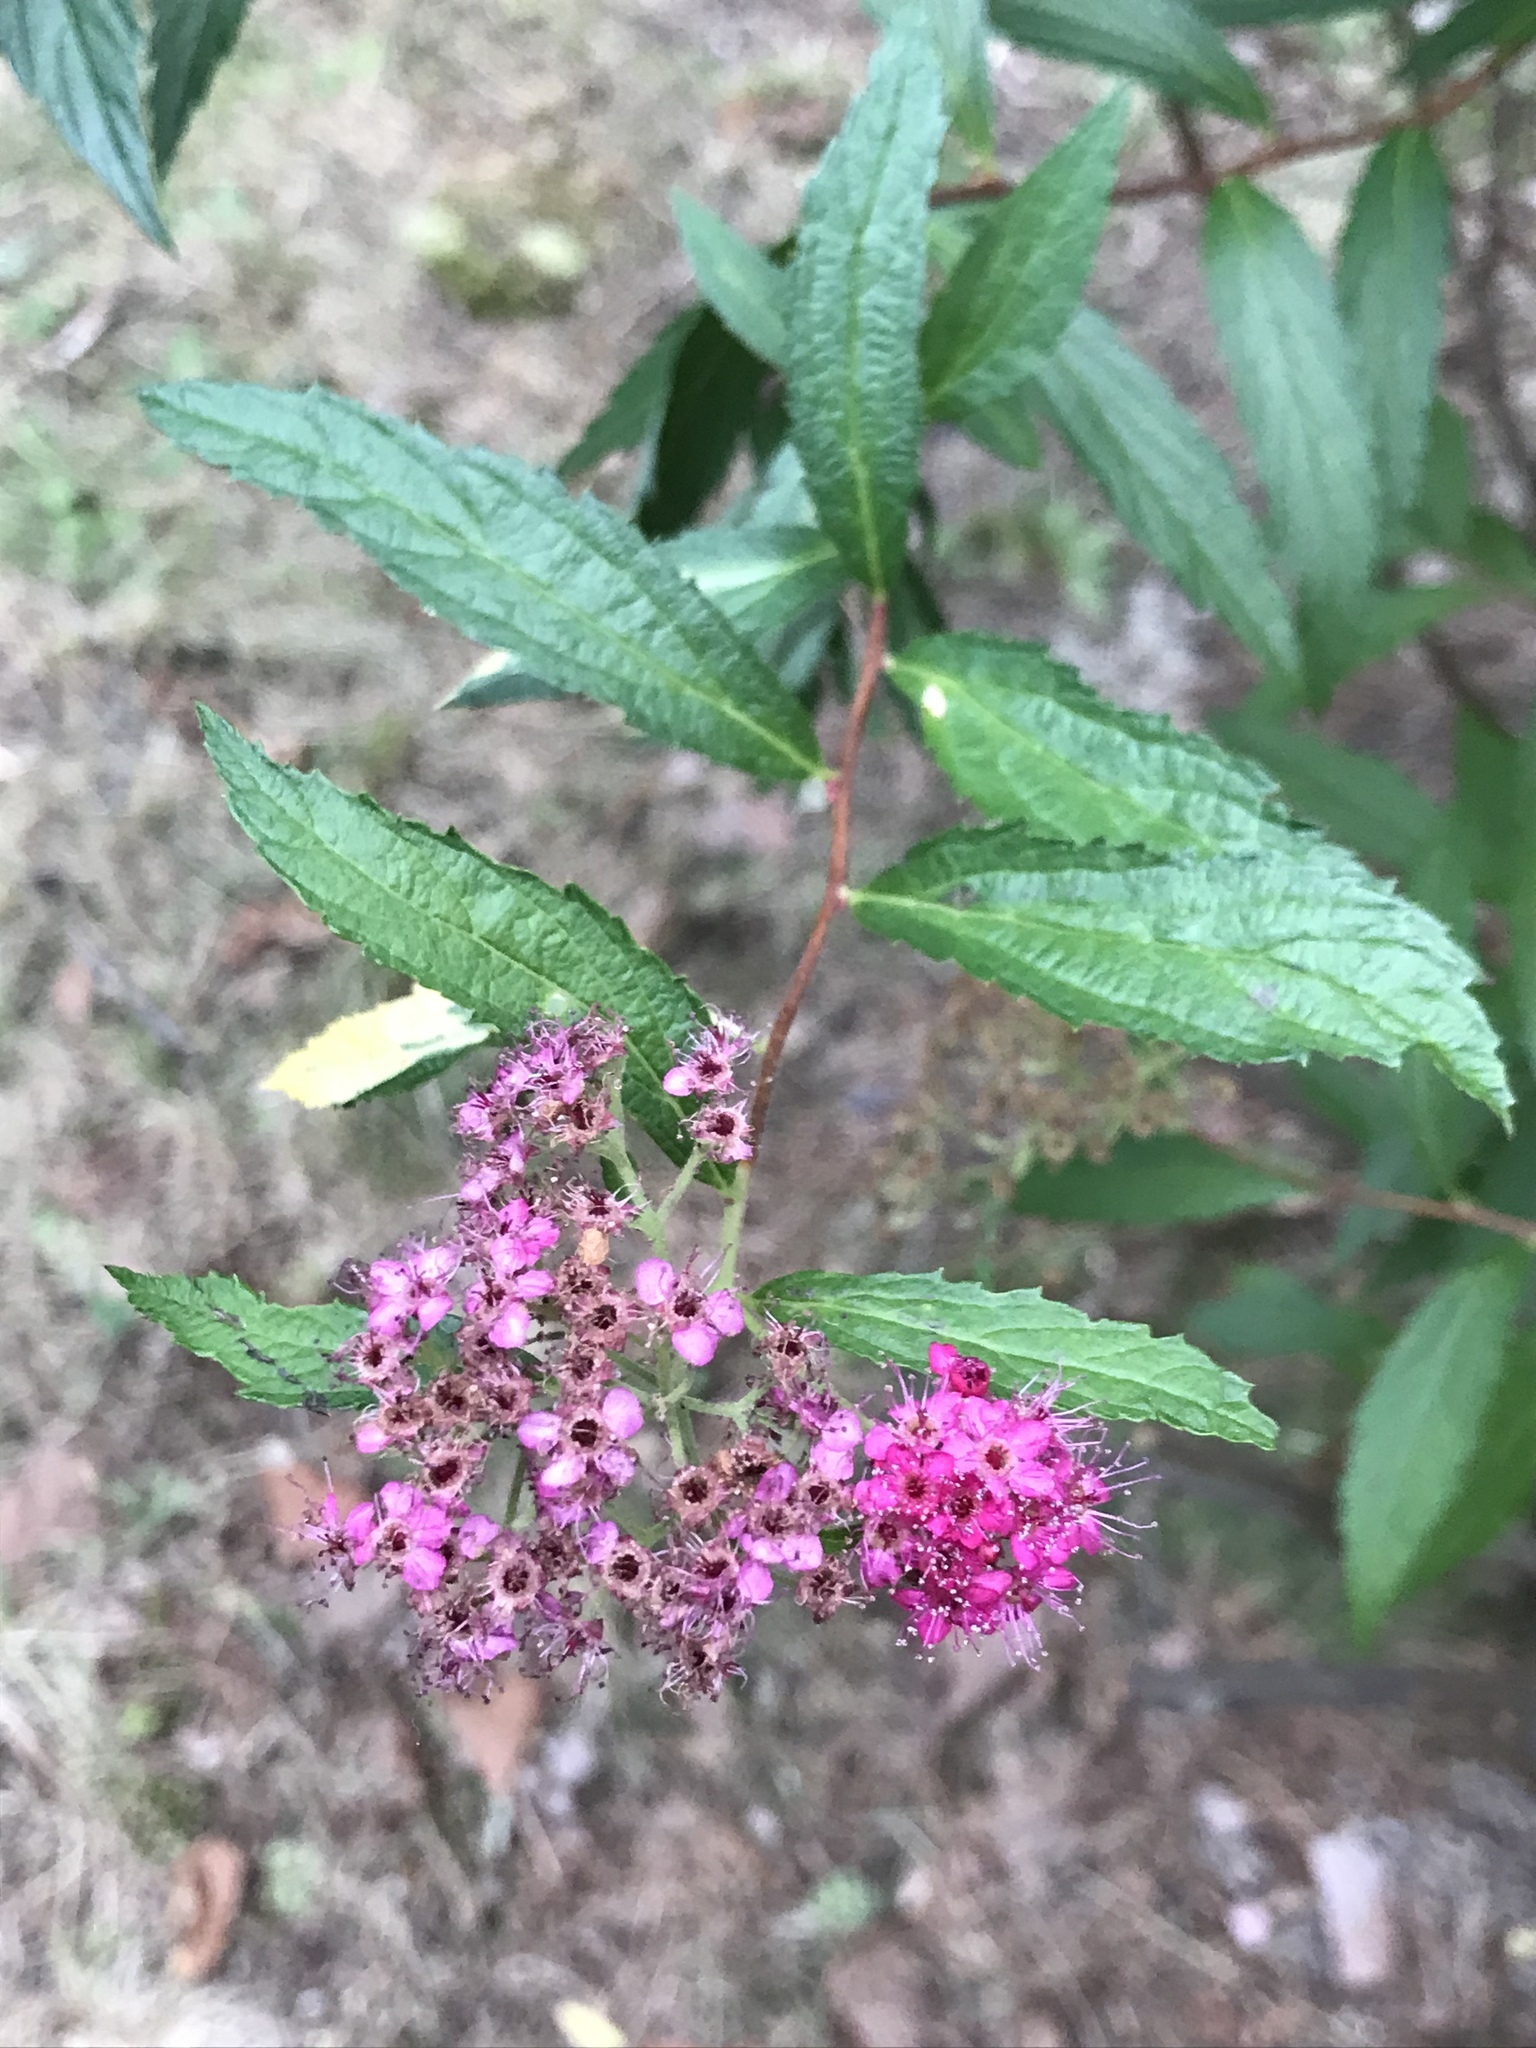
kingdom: Plantae
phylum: Tracheophyta
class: Magnoliopsida
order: Rosales
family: Rosaceae
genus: Spiraea
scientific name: Spiraea japonica
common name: Japanese spiraea
